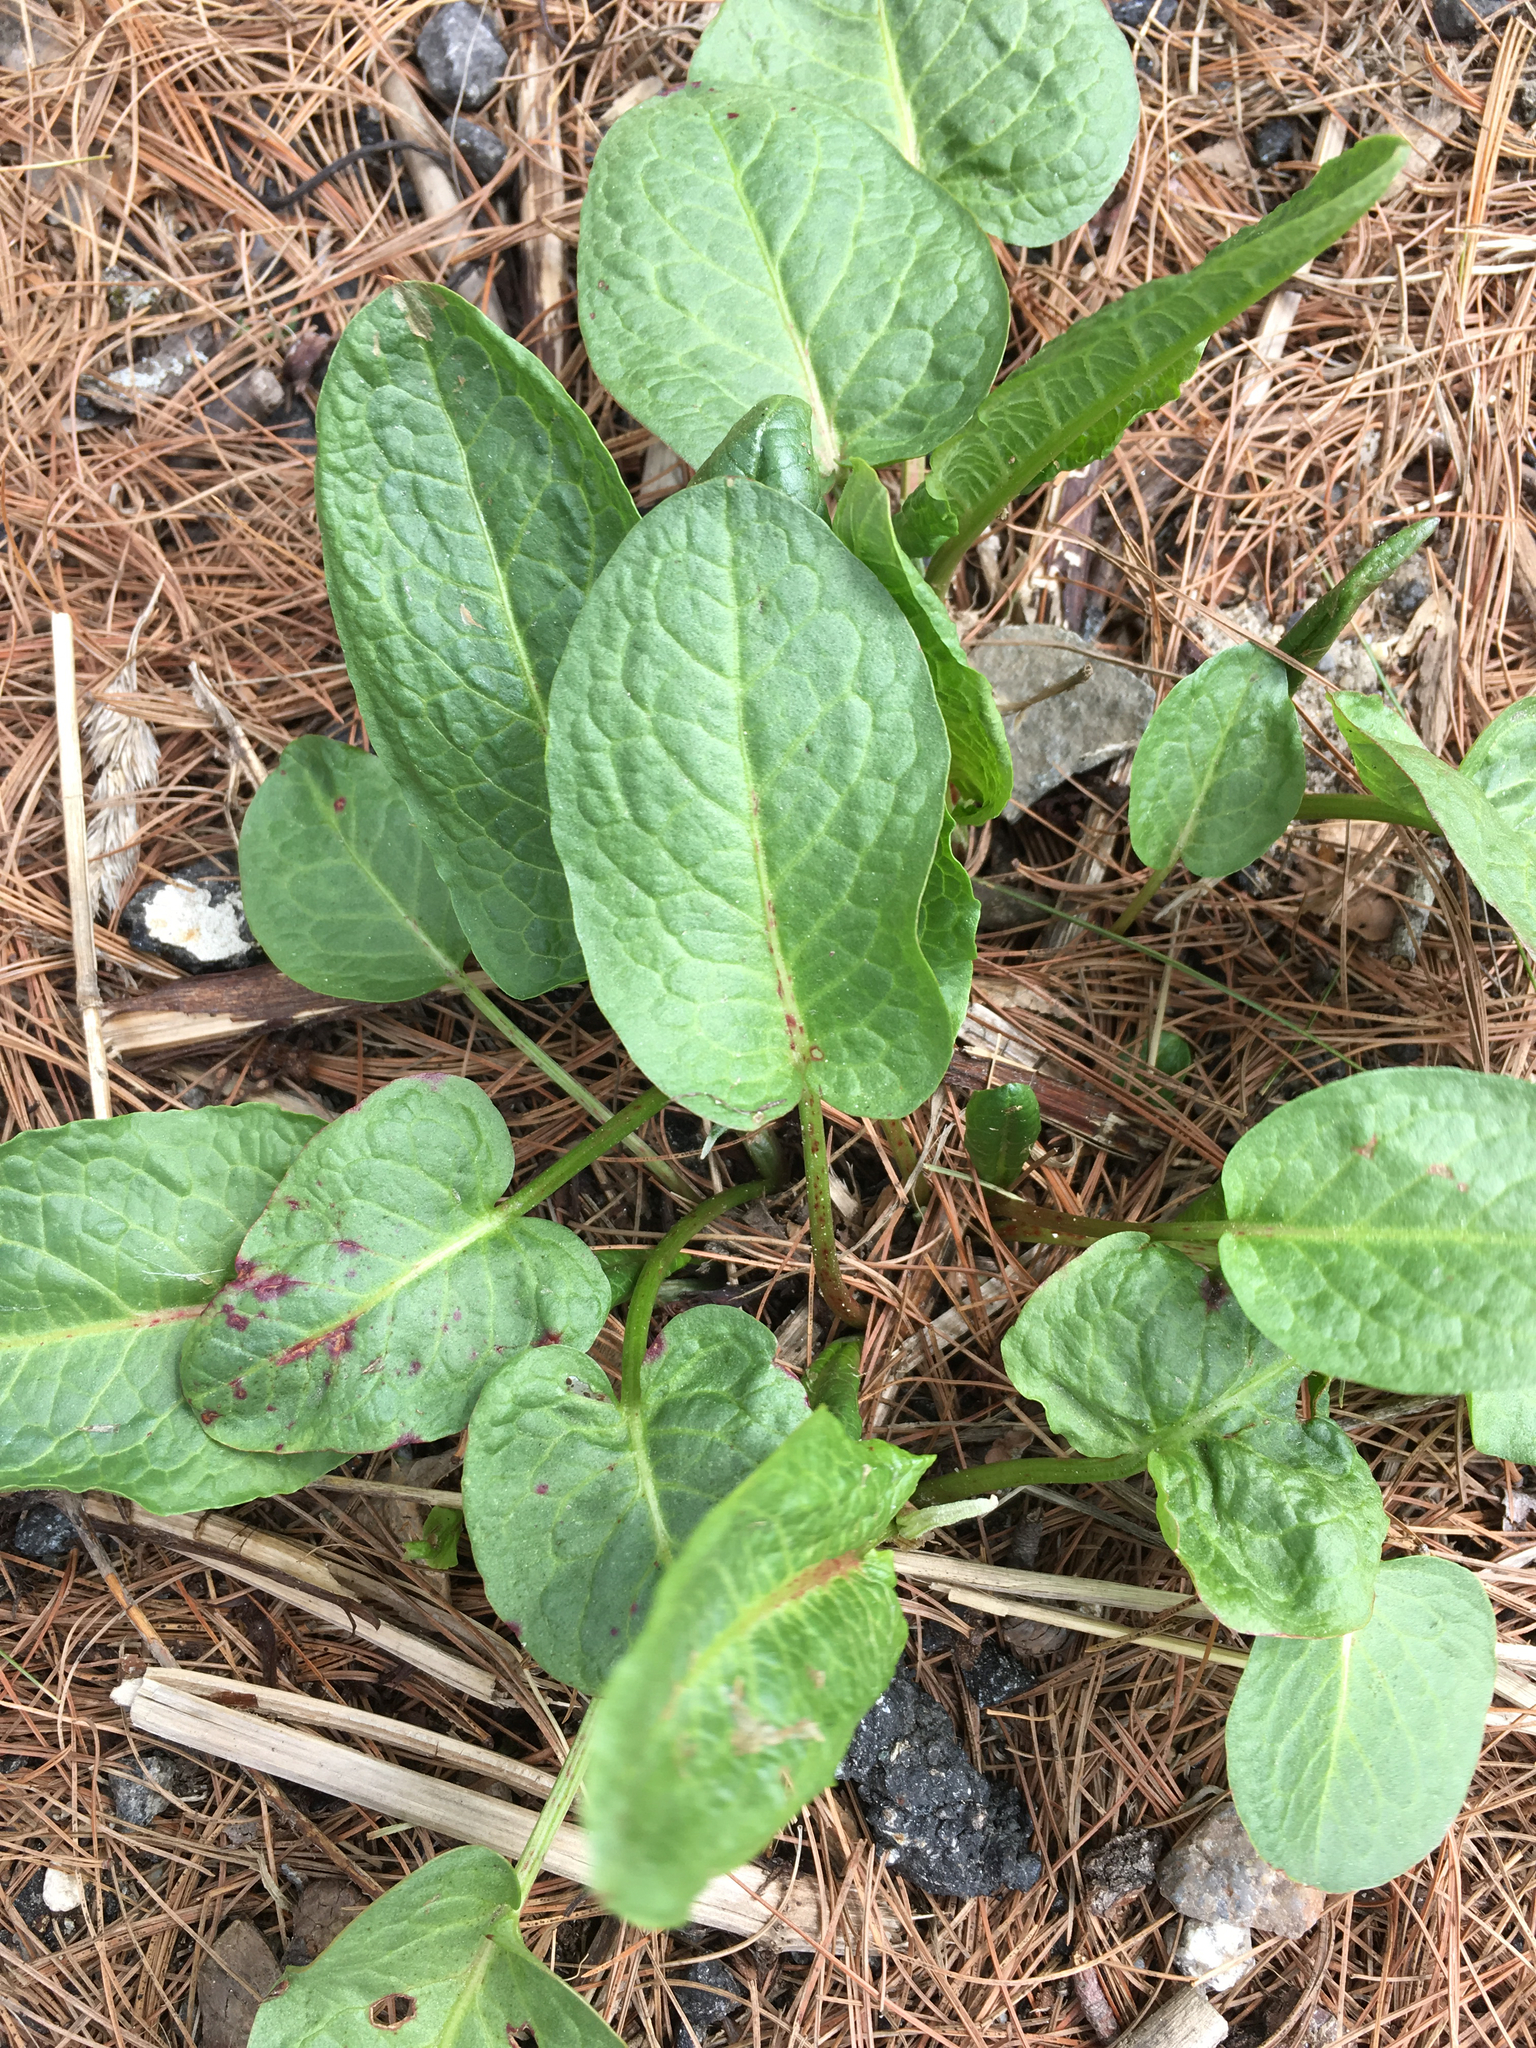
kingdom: Plantae
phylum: Tracheophyta
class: Magnoliopsida
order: Caryophyllales
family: Polygonaceae
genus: Rumex
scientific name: Rumex obtusifolius
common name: Bitter dock
